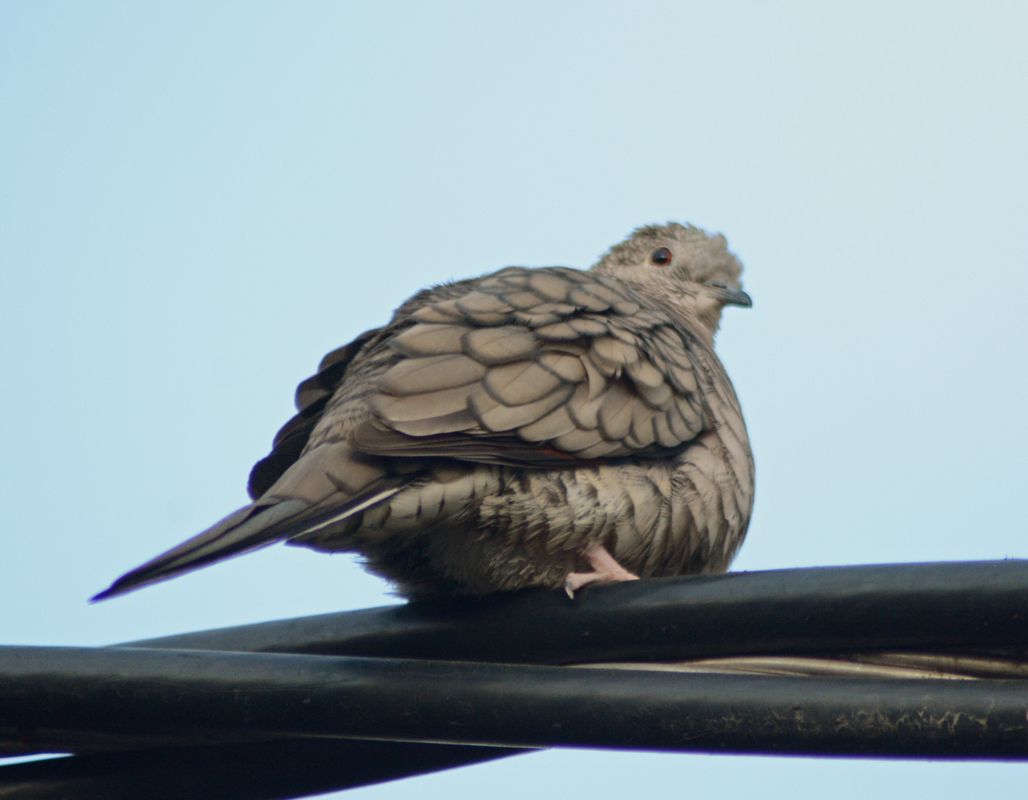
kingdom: Animalia
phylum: Chordata
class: Aves
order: Columbiformes
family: Columbidae
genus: Columbina
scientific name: Columbina inca
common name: Inca dove
